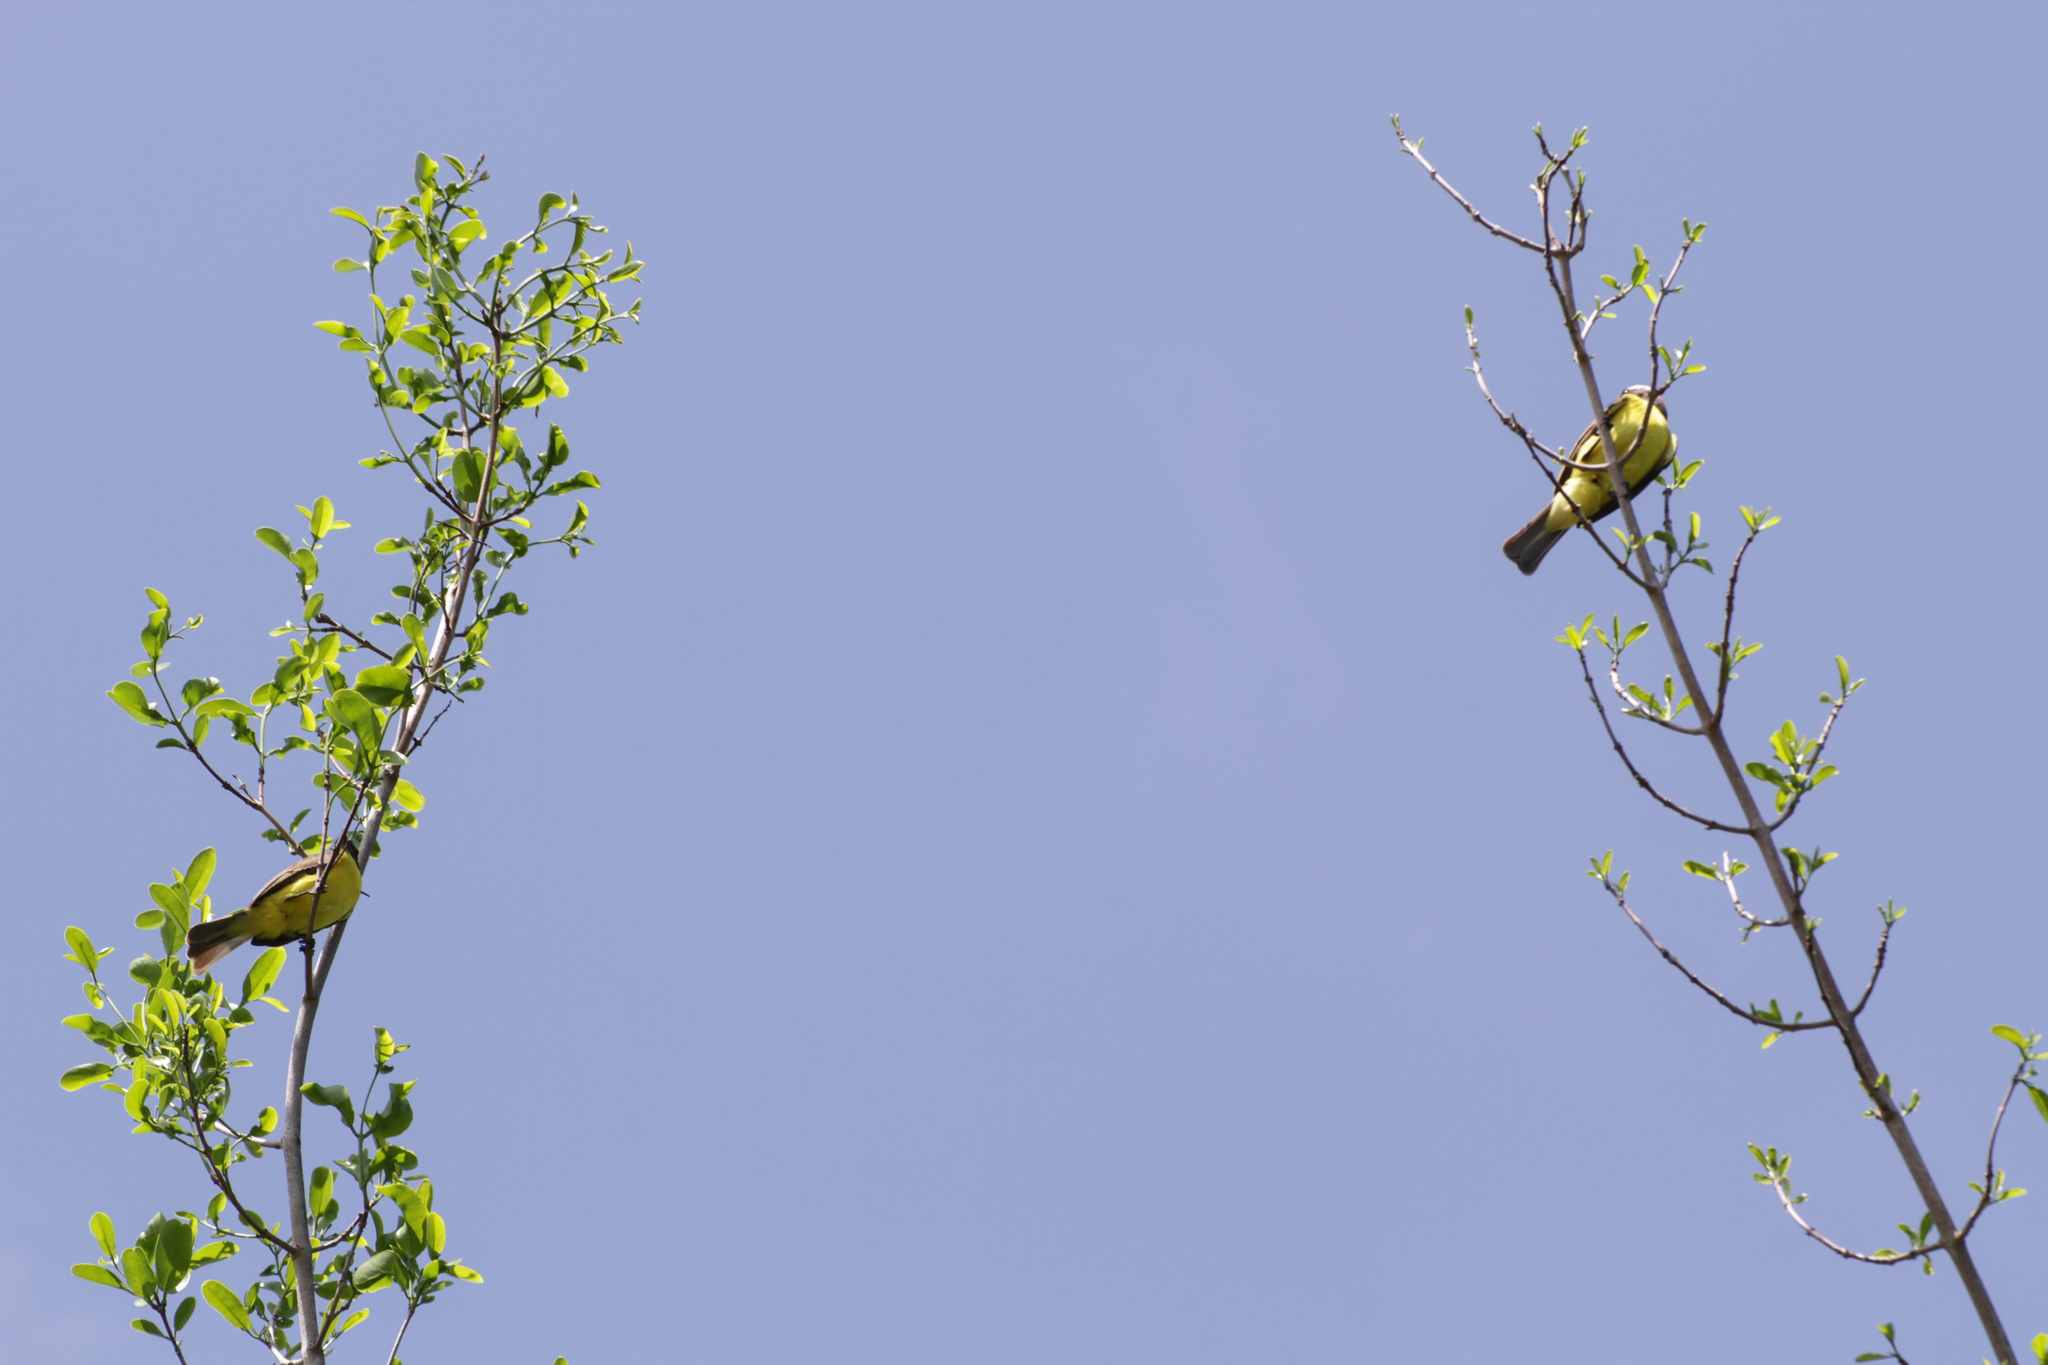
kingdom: Animalia
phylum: Chordata
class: Aves
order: Passeriformes
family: Tyrannidae
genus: Myiozetetes
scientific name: Myiozetetes similis
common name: Social flycatcher
